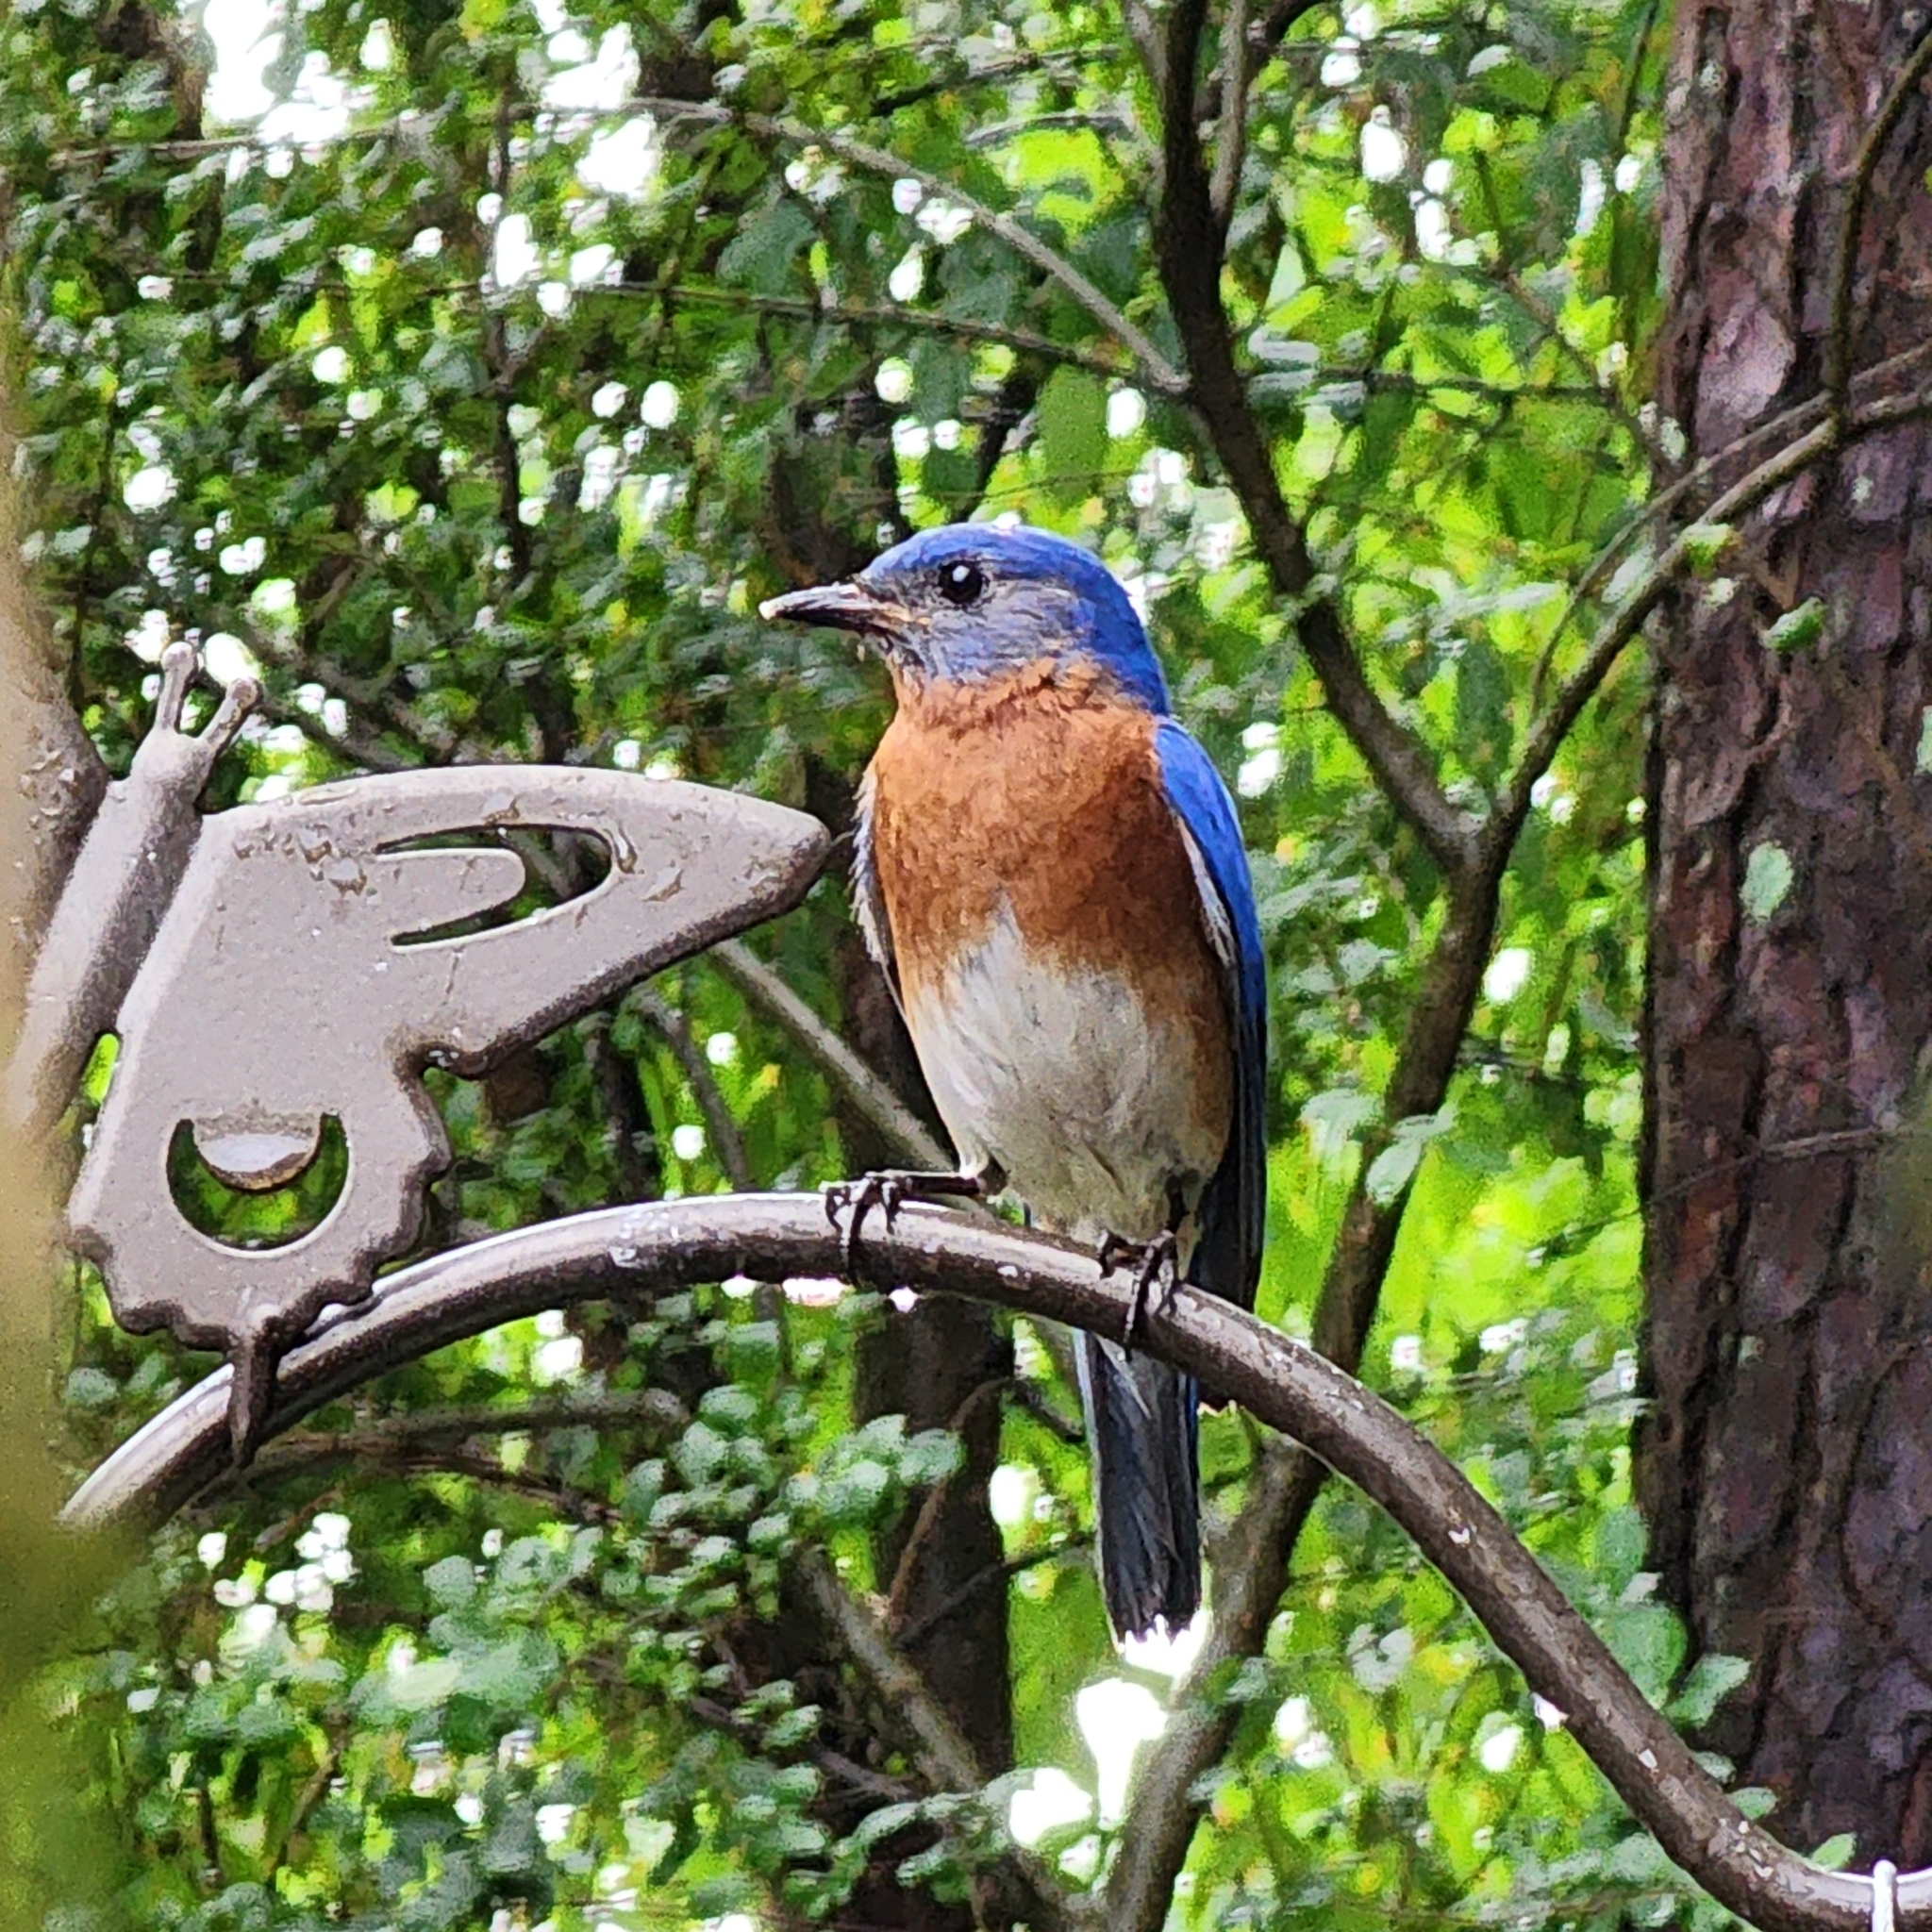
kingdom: Animalia
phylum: Chordata
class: Aves
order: Passeriformes
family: Turdidae
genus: Sialia
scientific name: Sialia sialis
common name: Eastern bluebird
